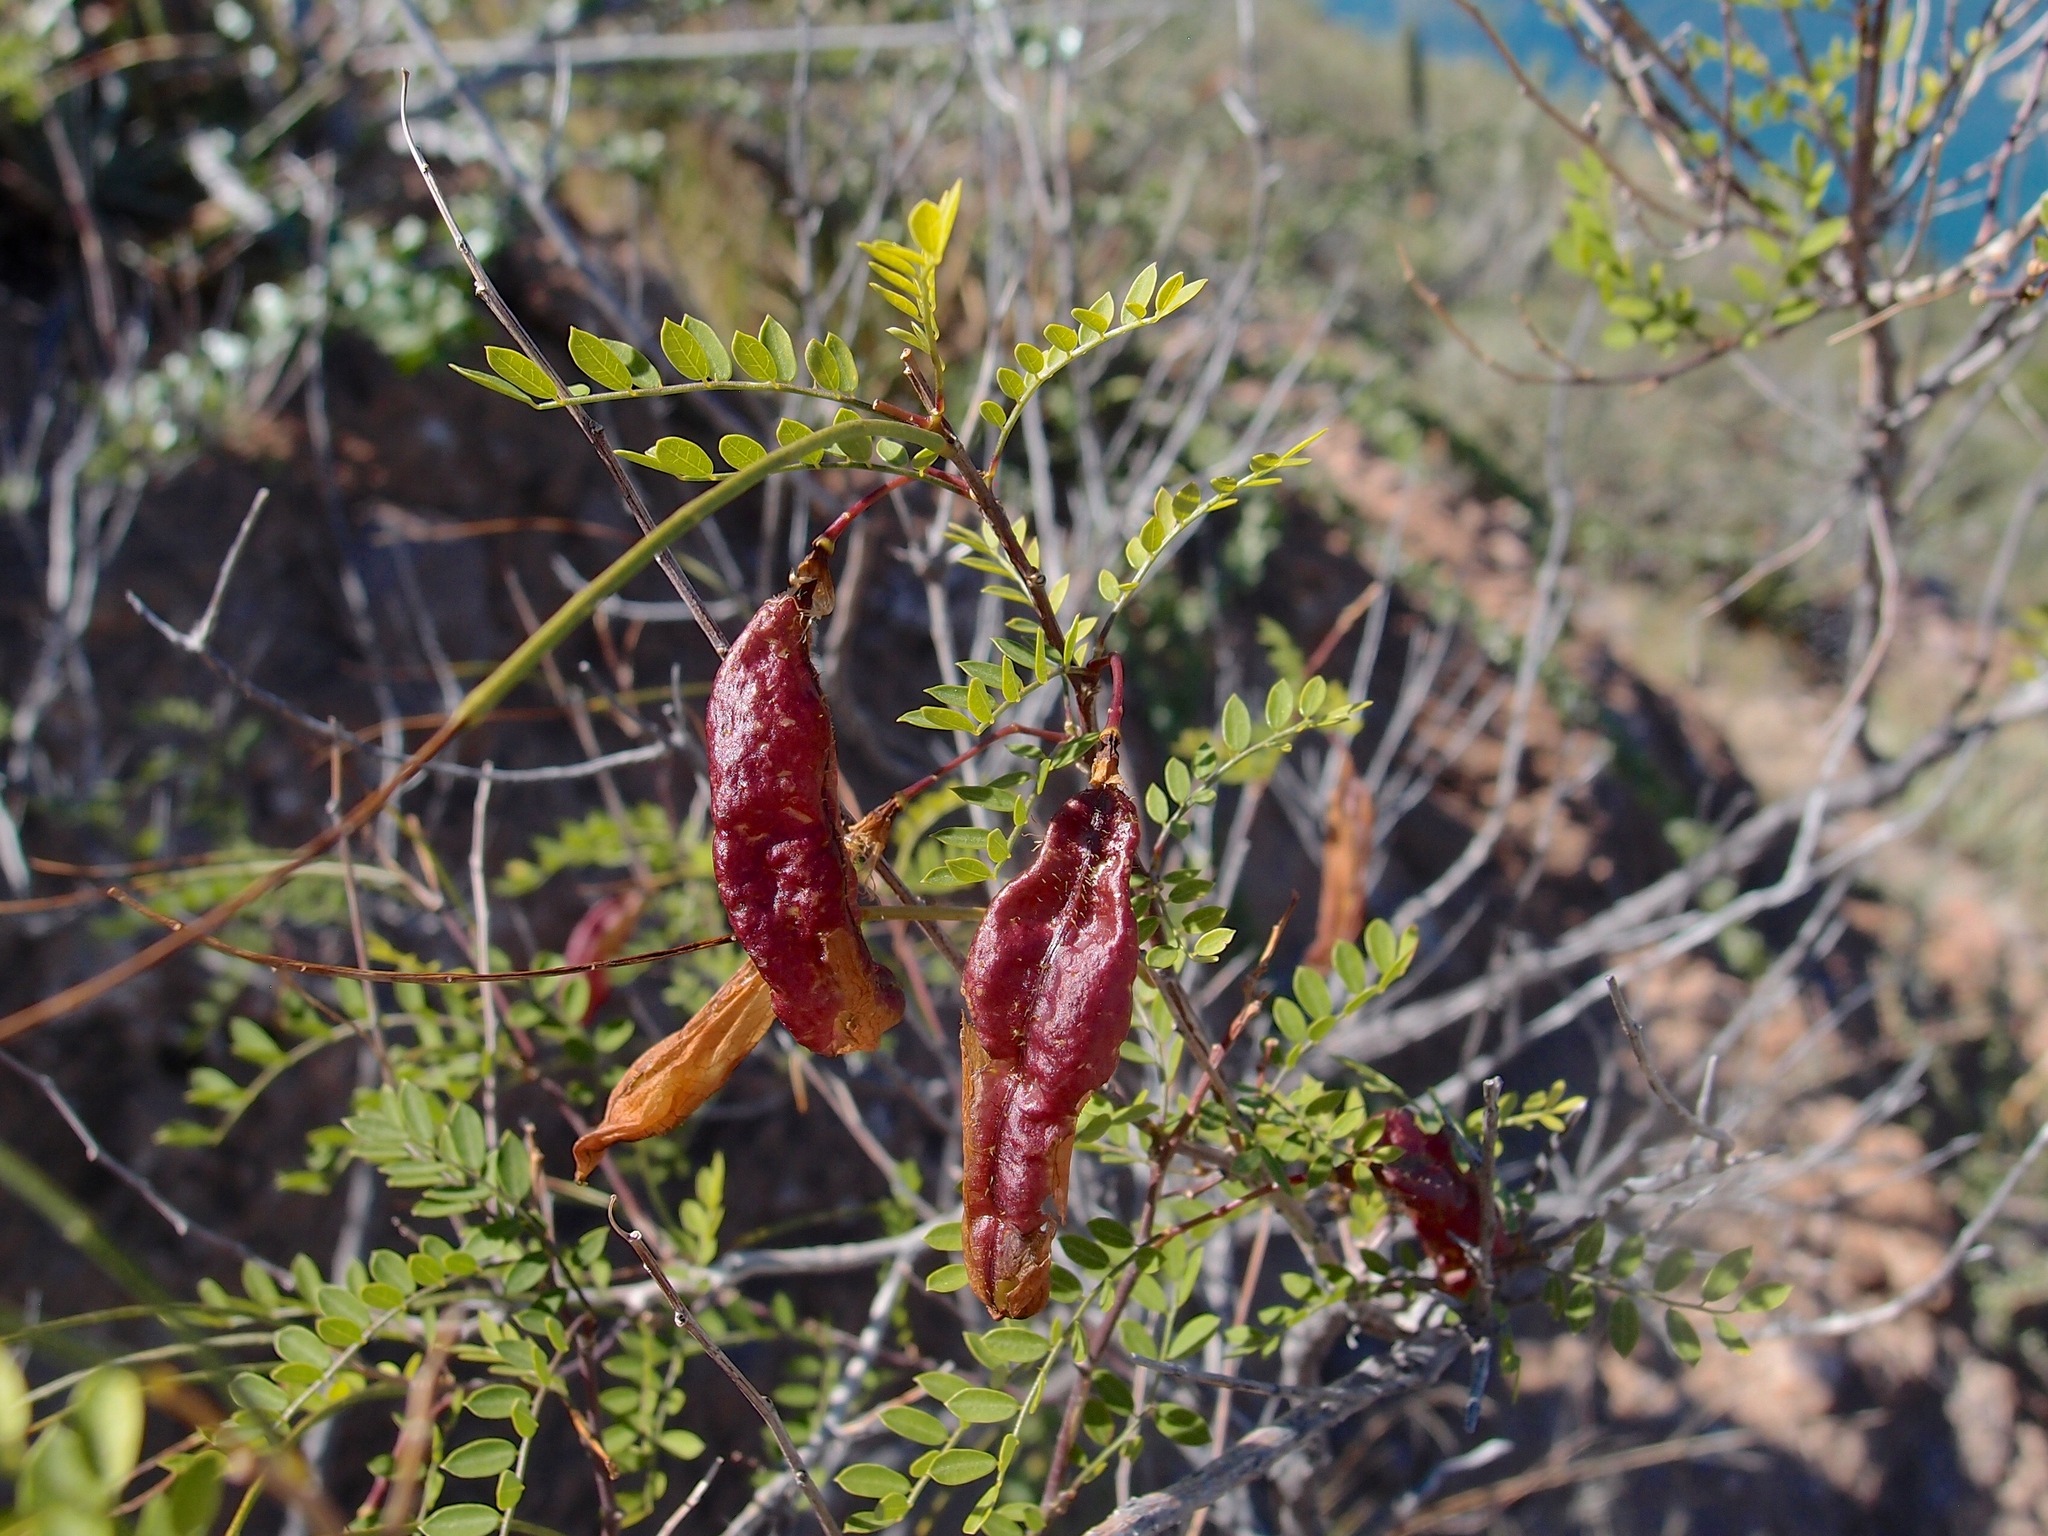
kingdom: Plantae
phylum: Tracheophyta
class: Magnoliopsida
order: Fabales
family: Fabaceae
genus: Diphysa
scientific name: Diphysa occidentalis
